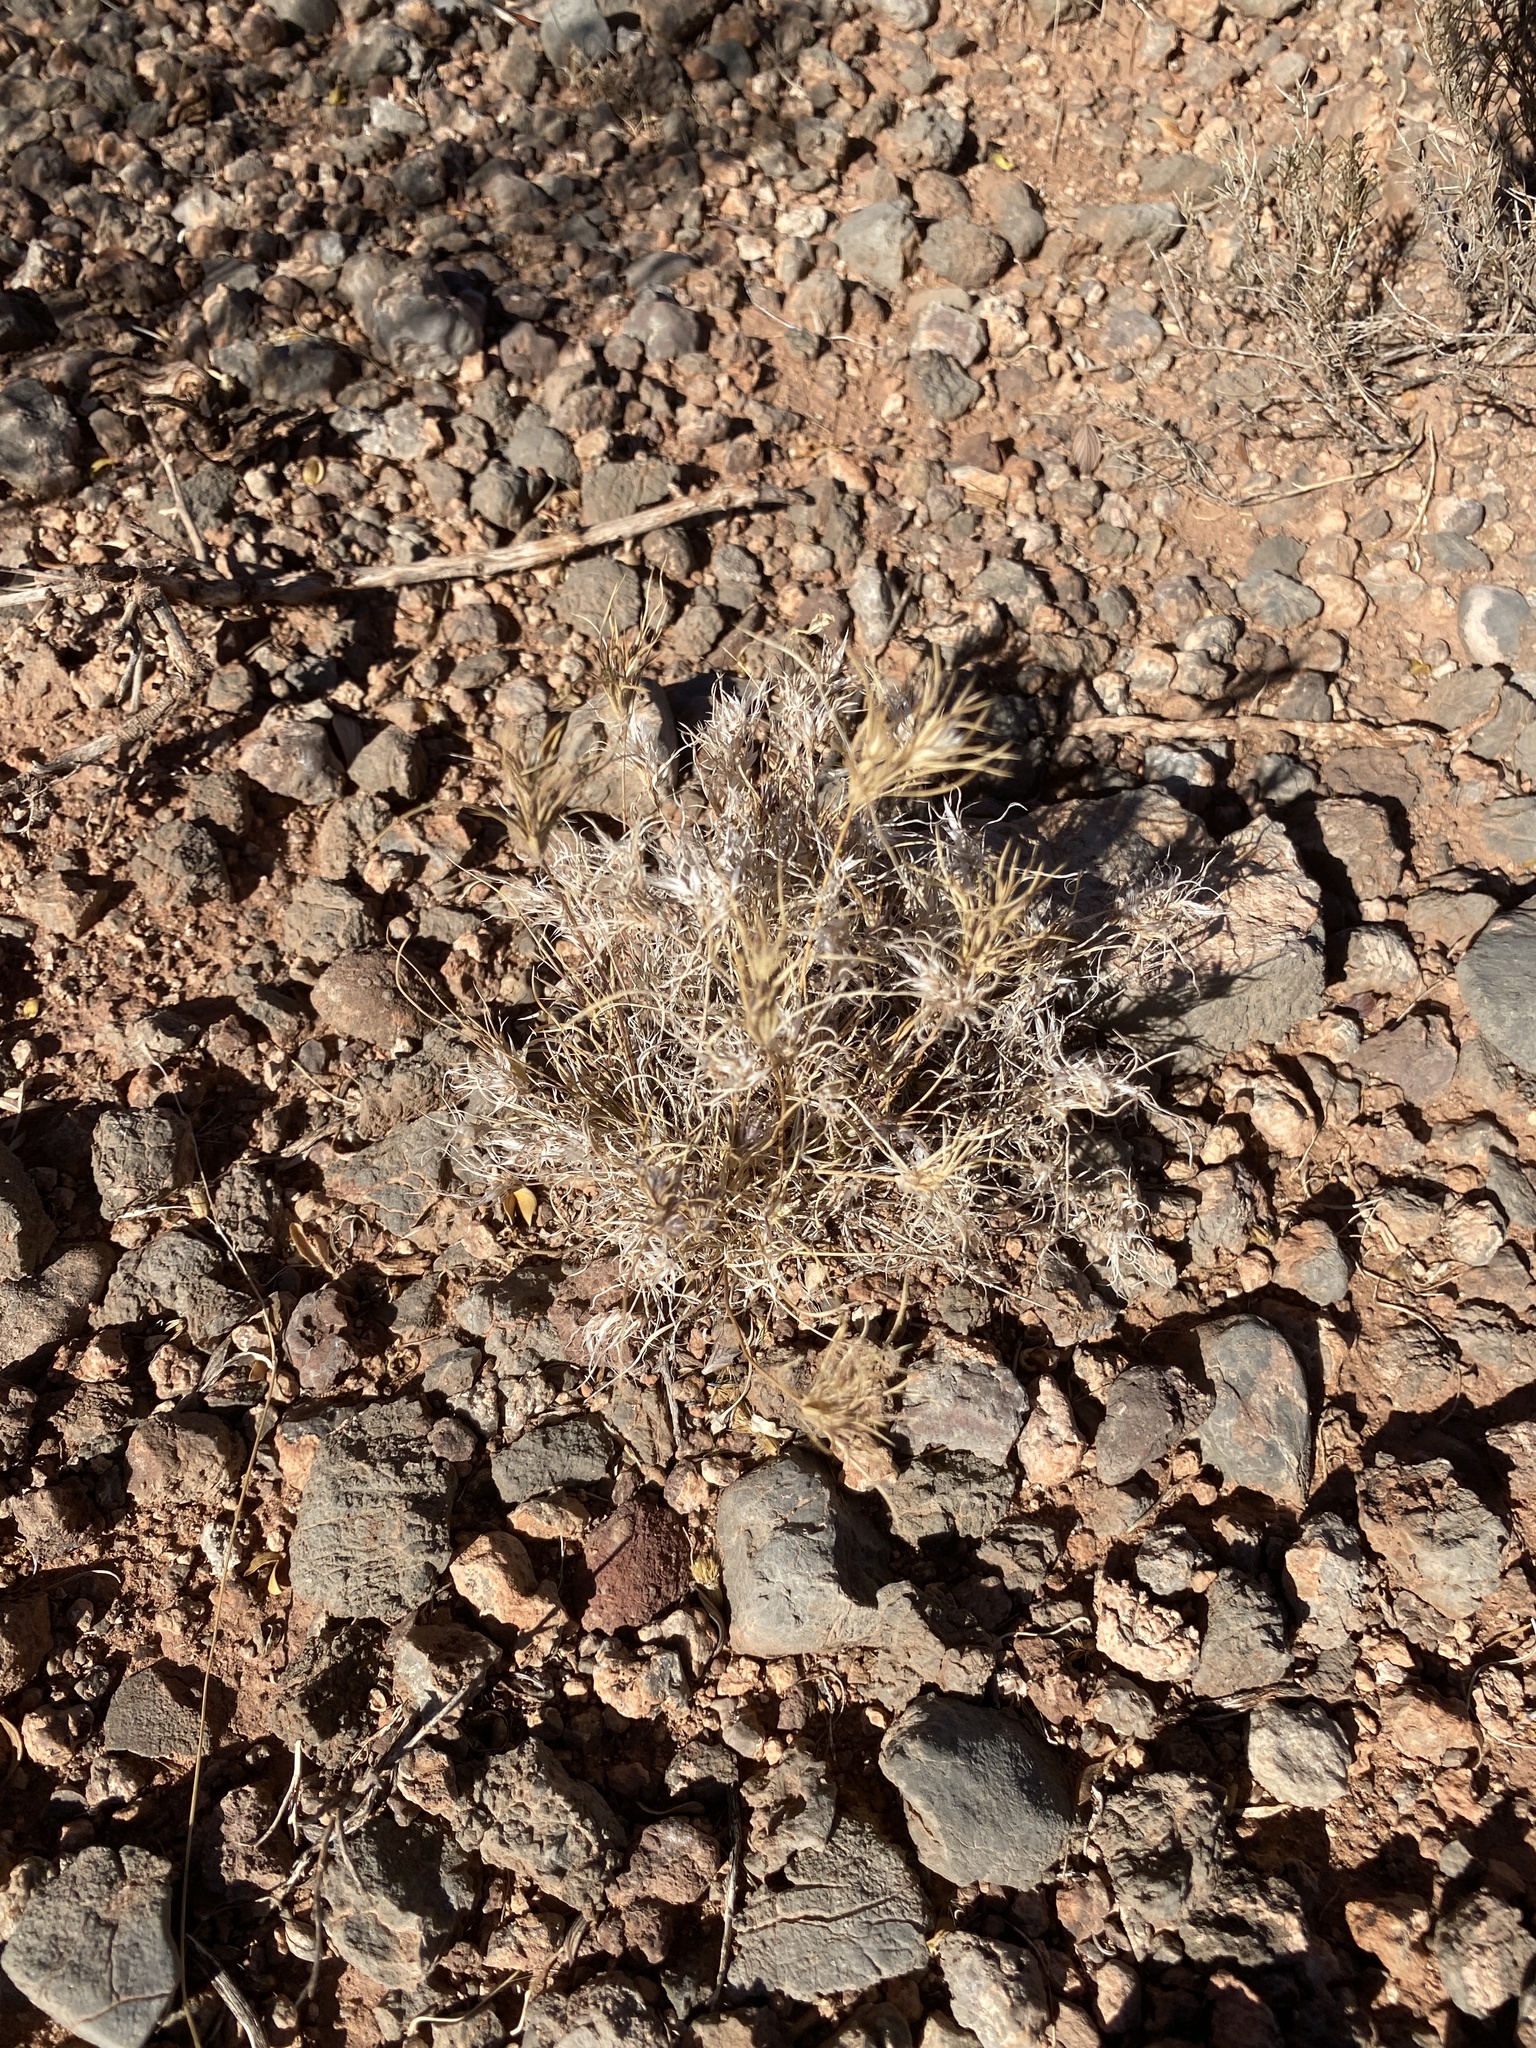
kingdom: Plantae
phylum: Tracheophyta
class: Liliopsida
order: Poales
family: Poaceae
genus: Dasyochloa
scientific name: Dasyochloa pulchella
